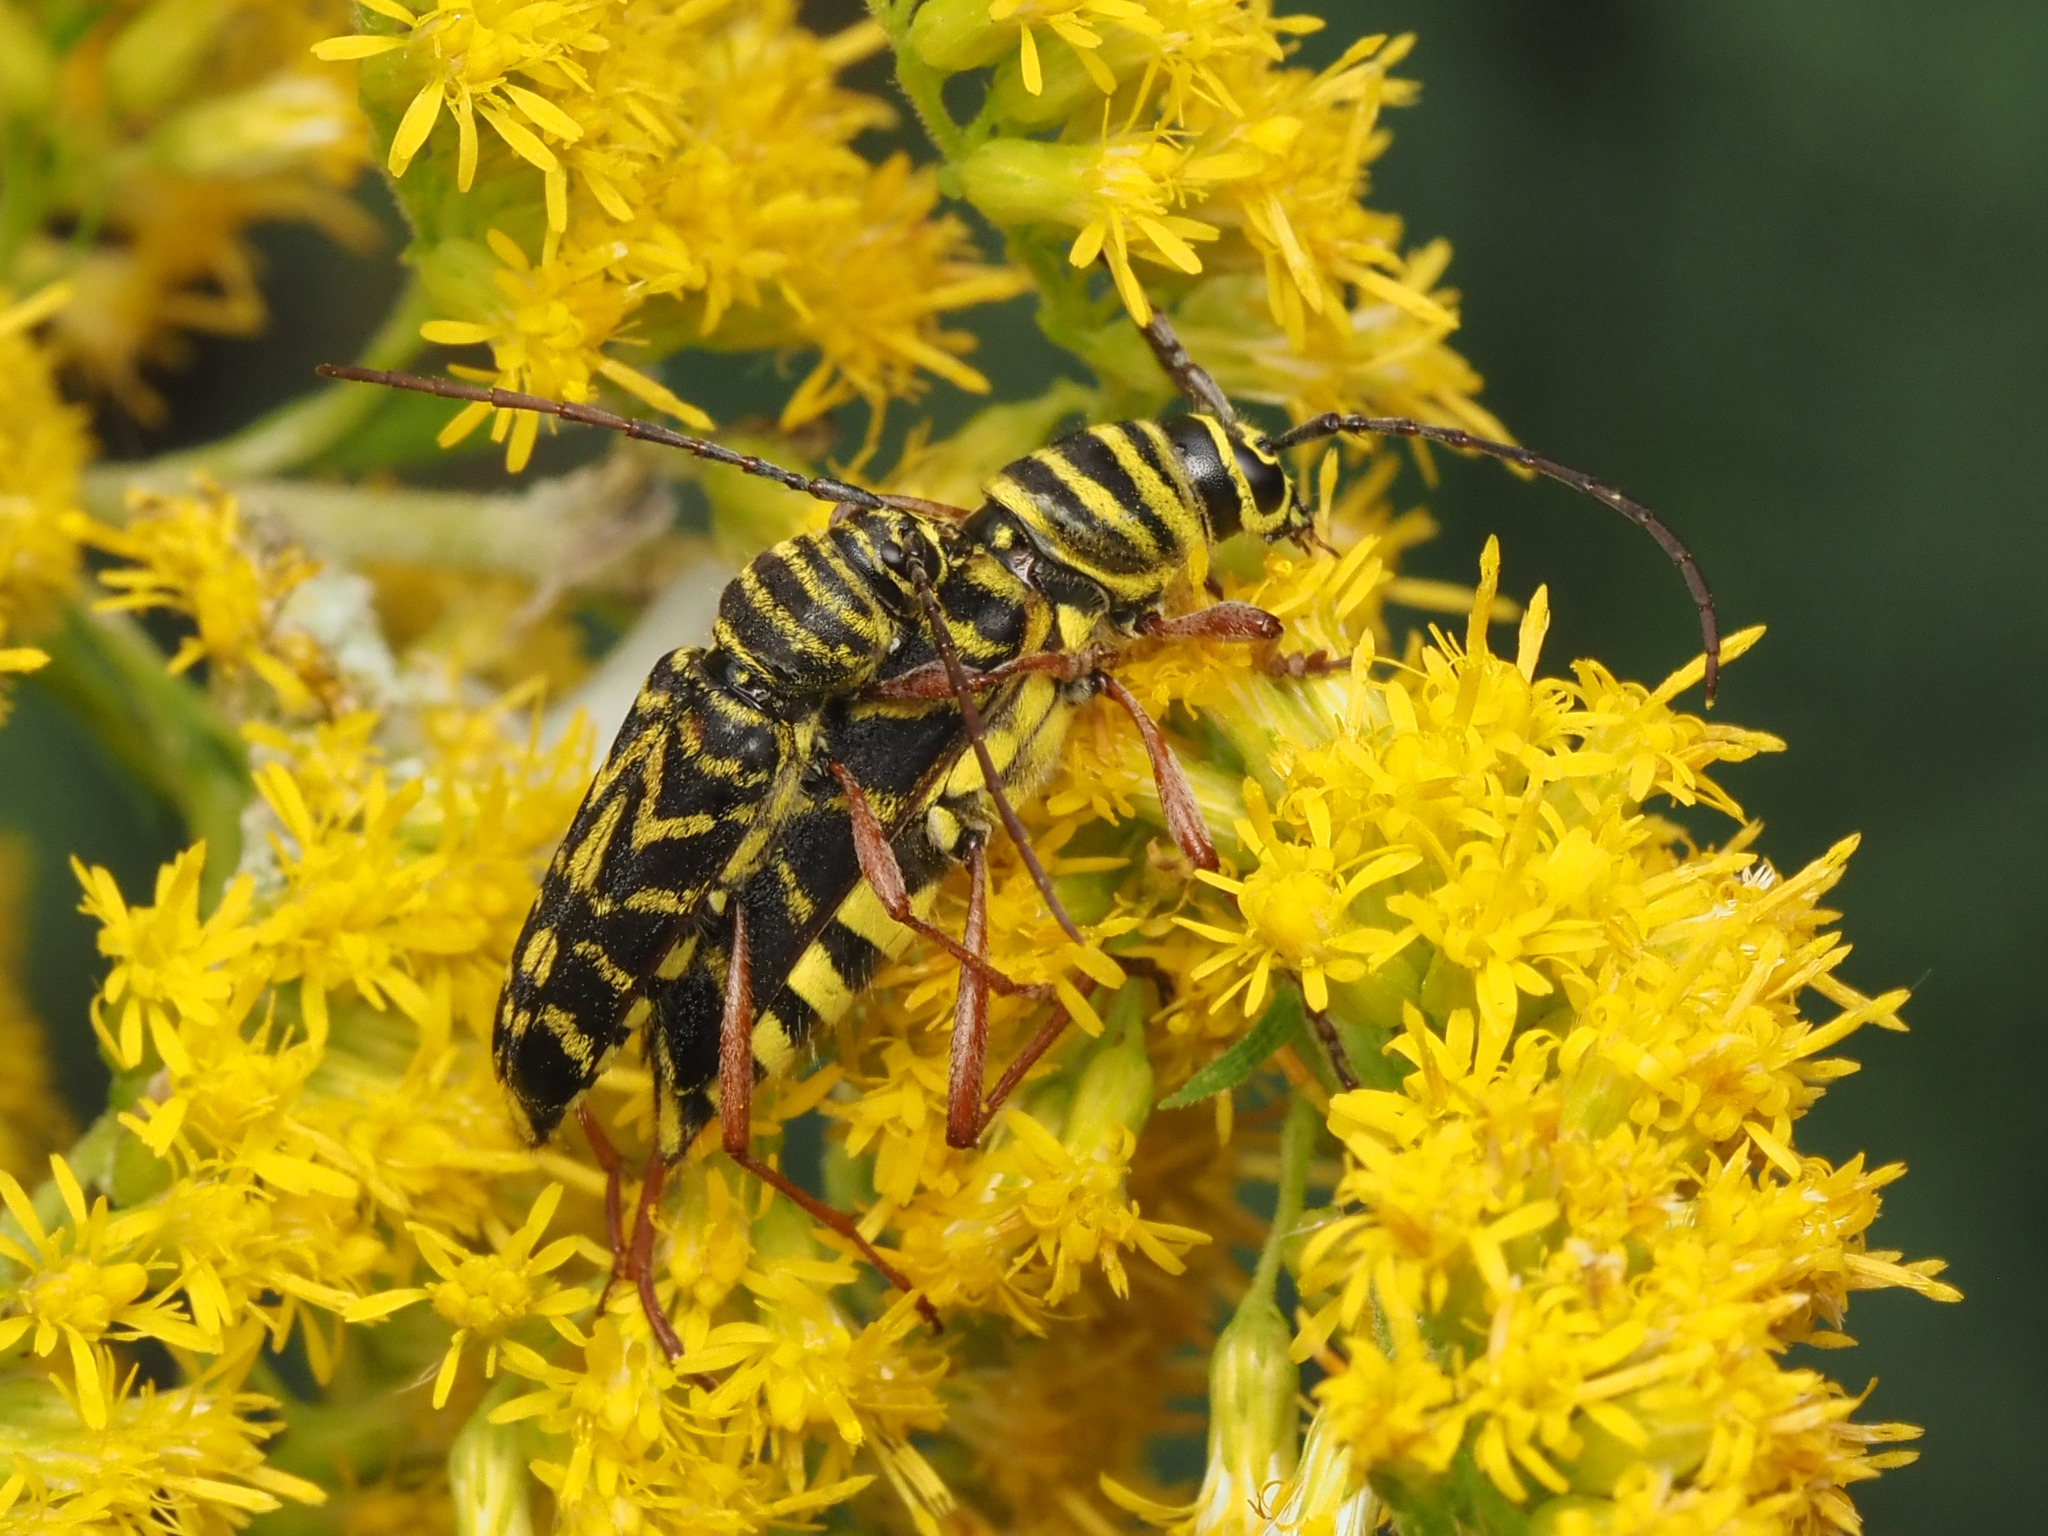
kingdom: Animalia
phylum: Arthropoda
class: Insecta
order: Coleoptera
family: Cerambycidae
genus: Megacyllene
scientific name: Megacyllene robiniae
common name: Locust borer
